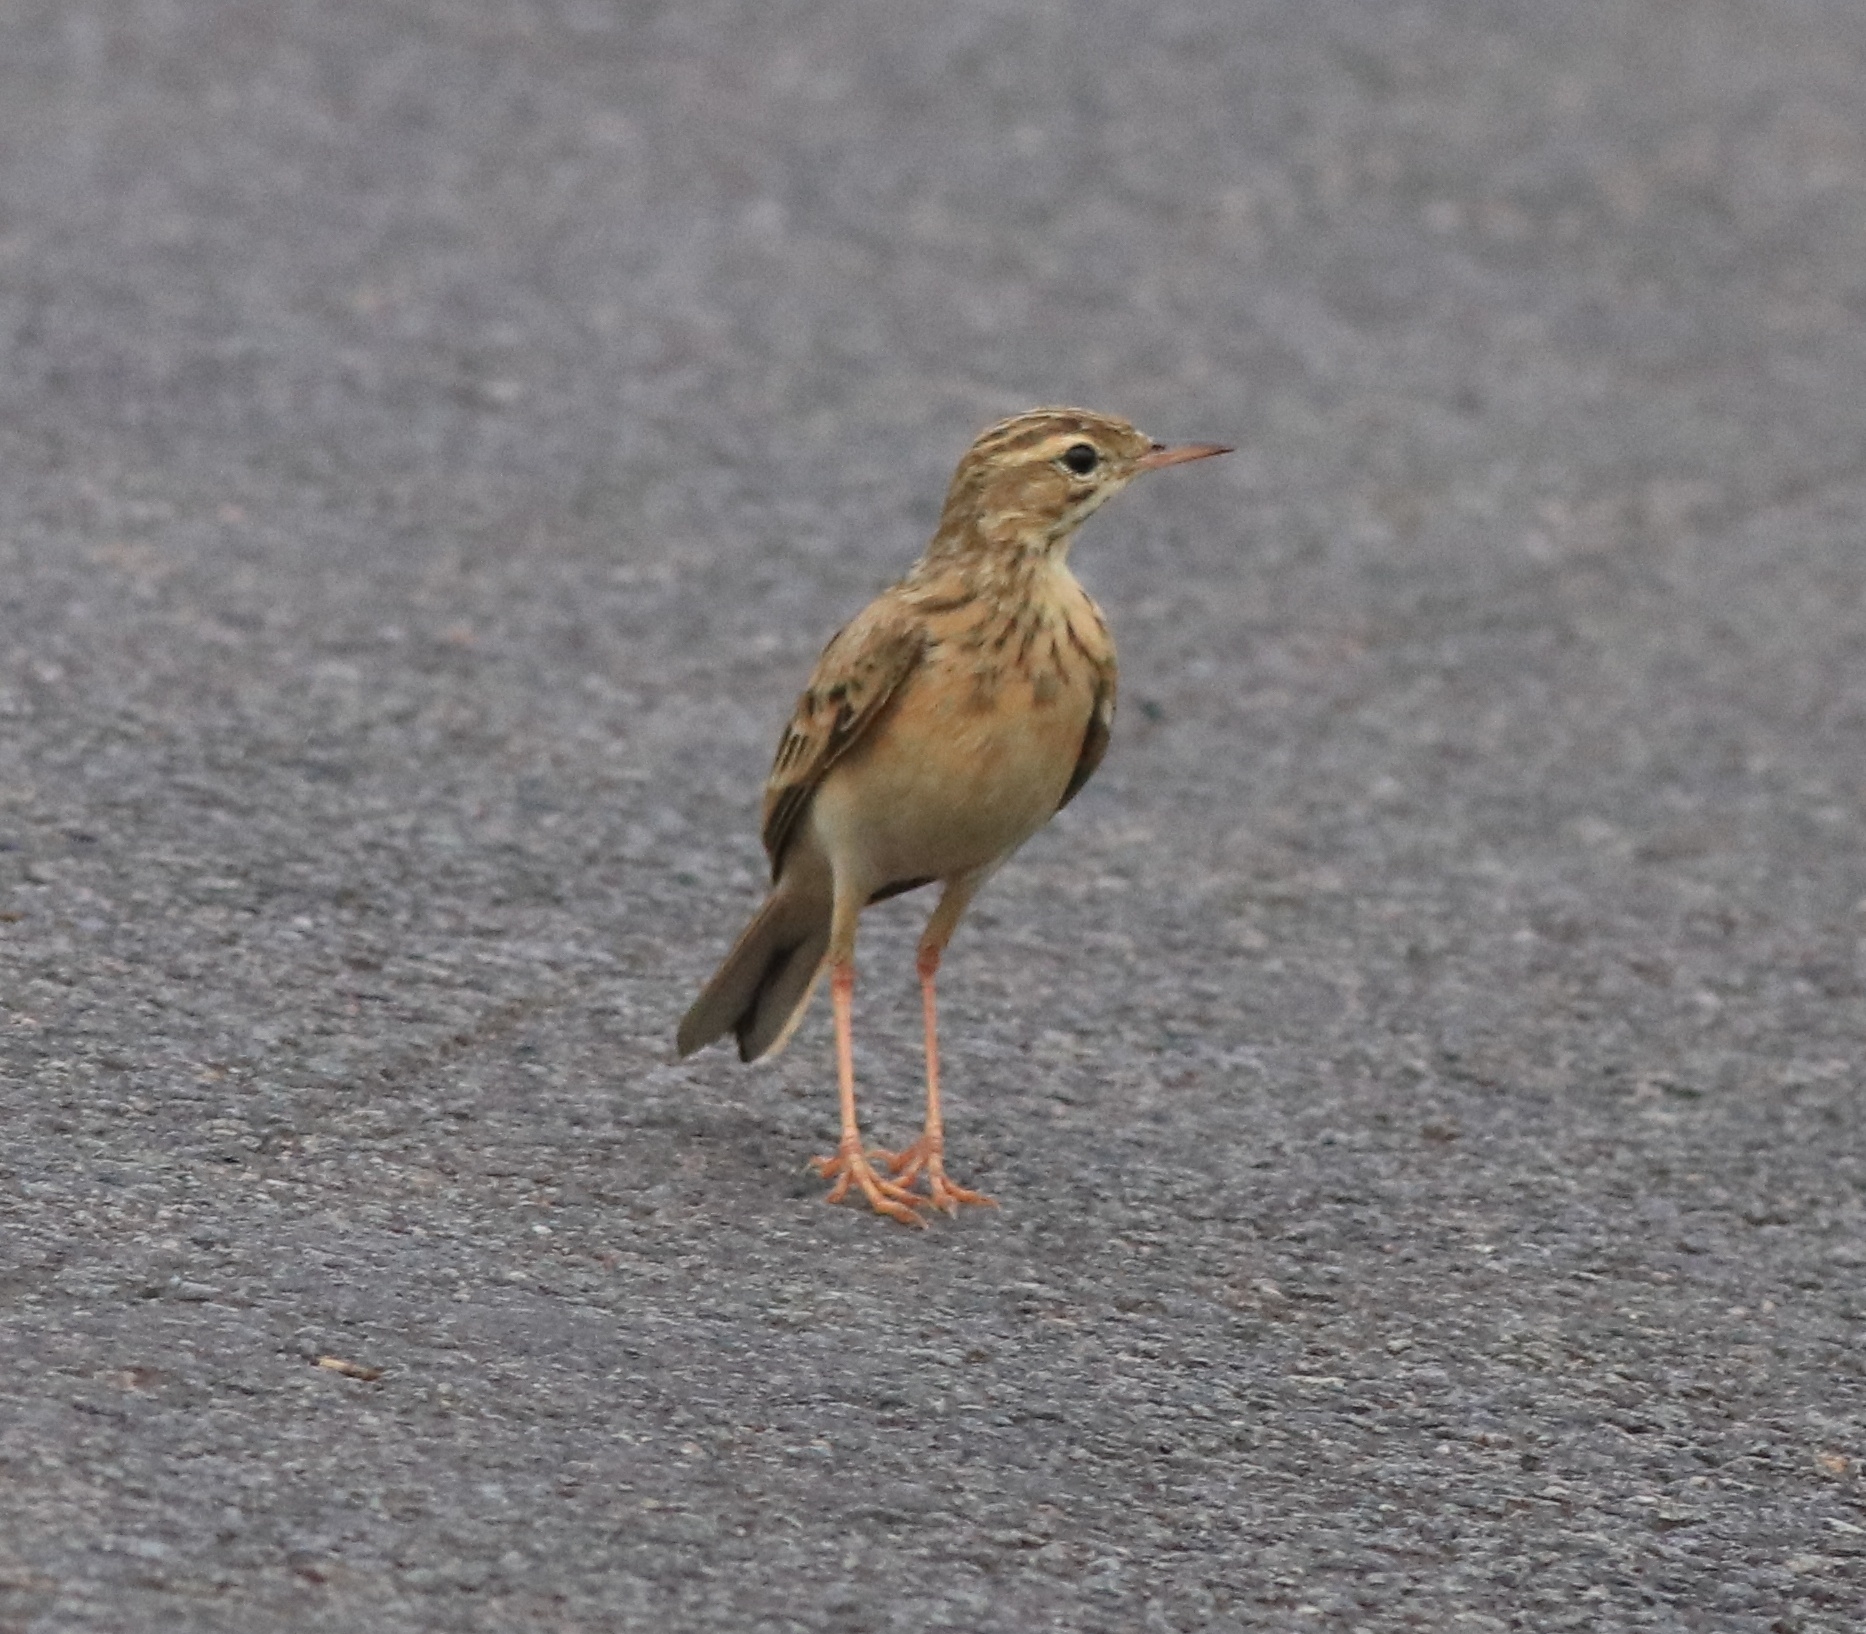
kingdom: Animalia
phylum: Chordata
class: Aves
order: Passeriformes
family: Motacillidae
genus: Anthus
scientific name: Anthus rufulus
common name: Paddyfield pipit
